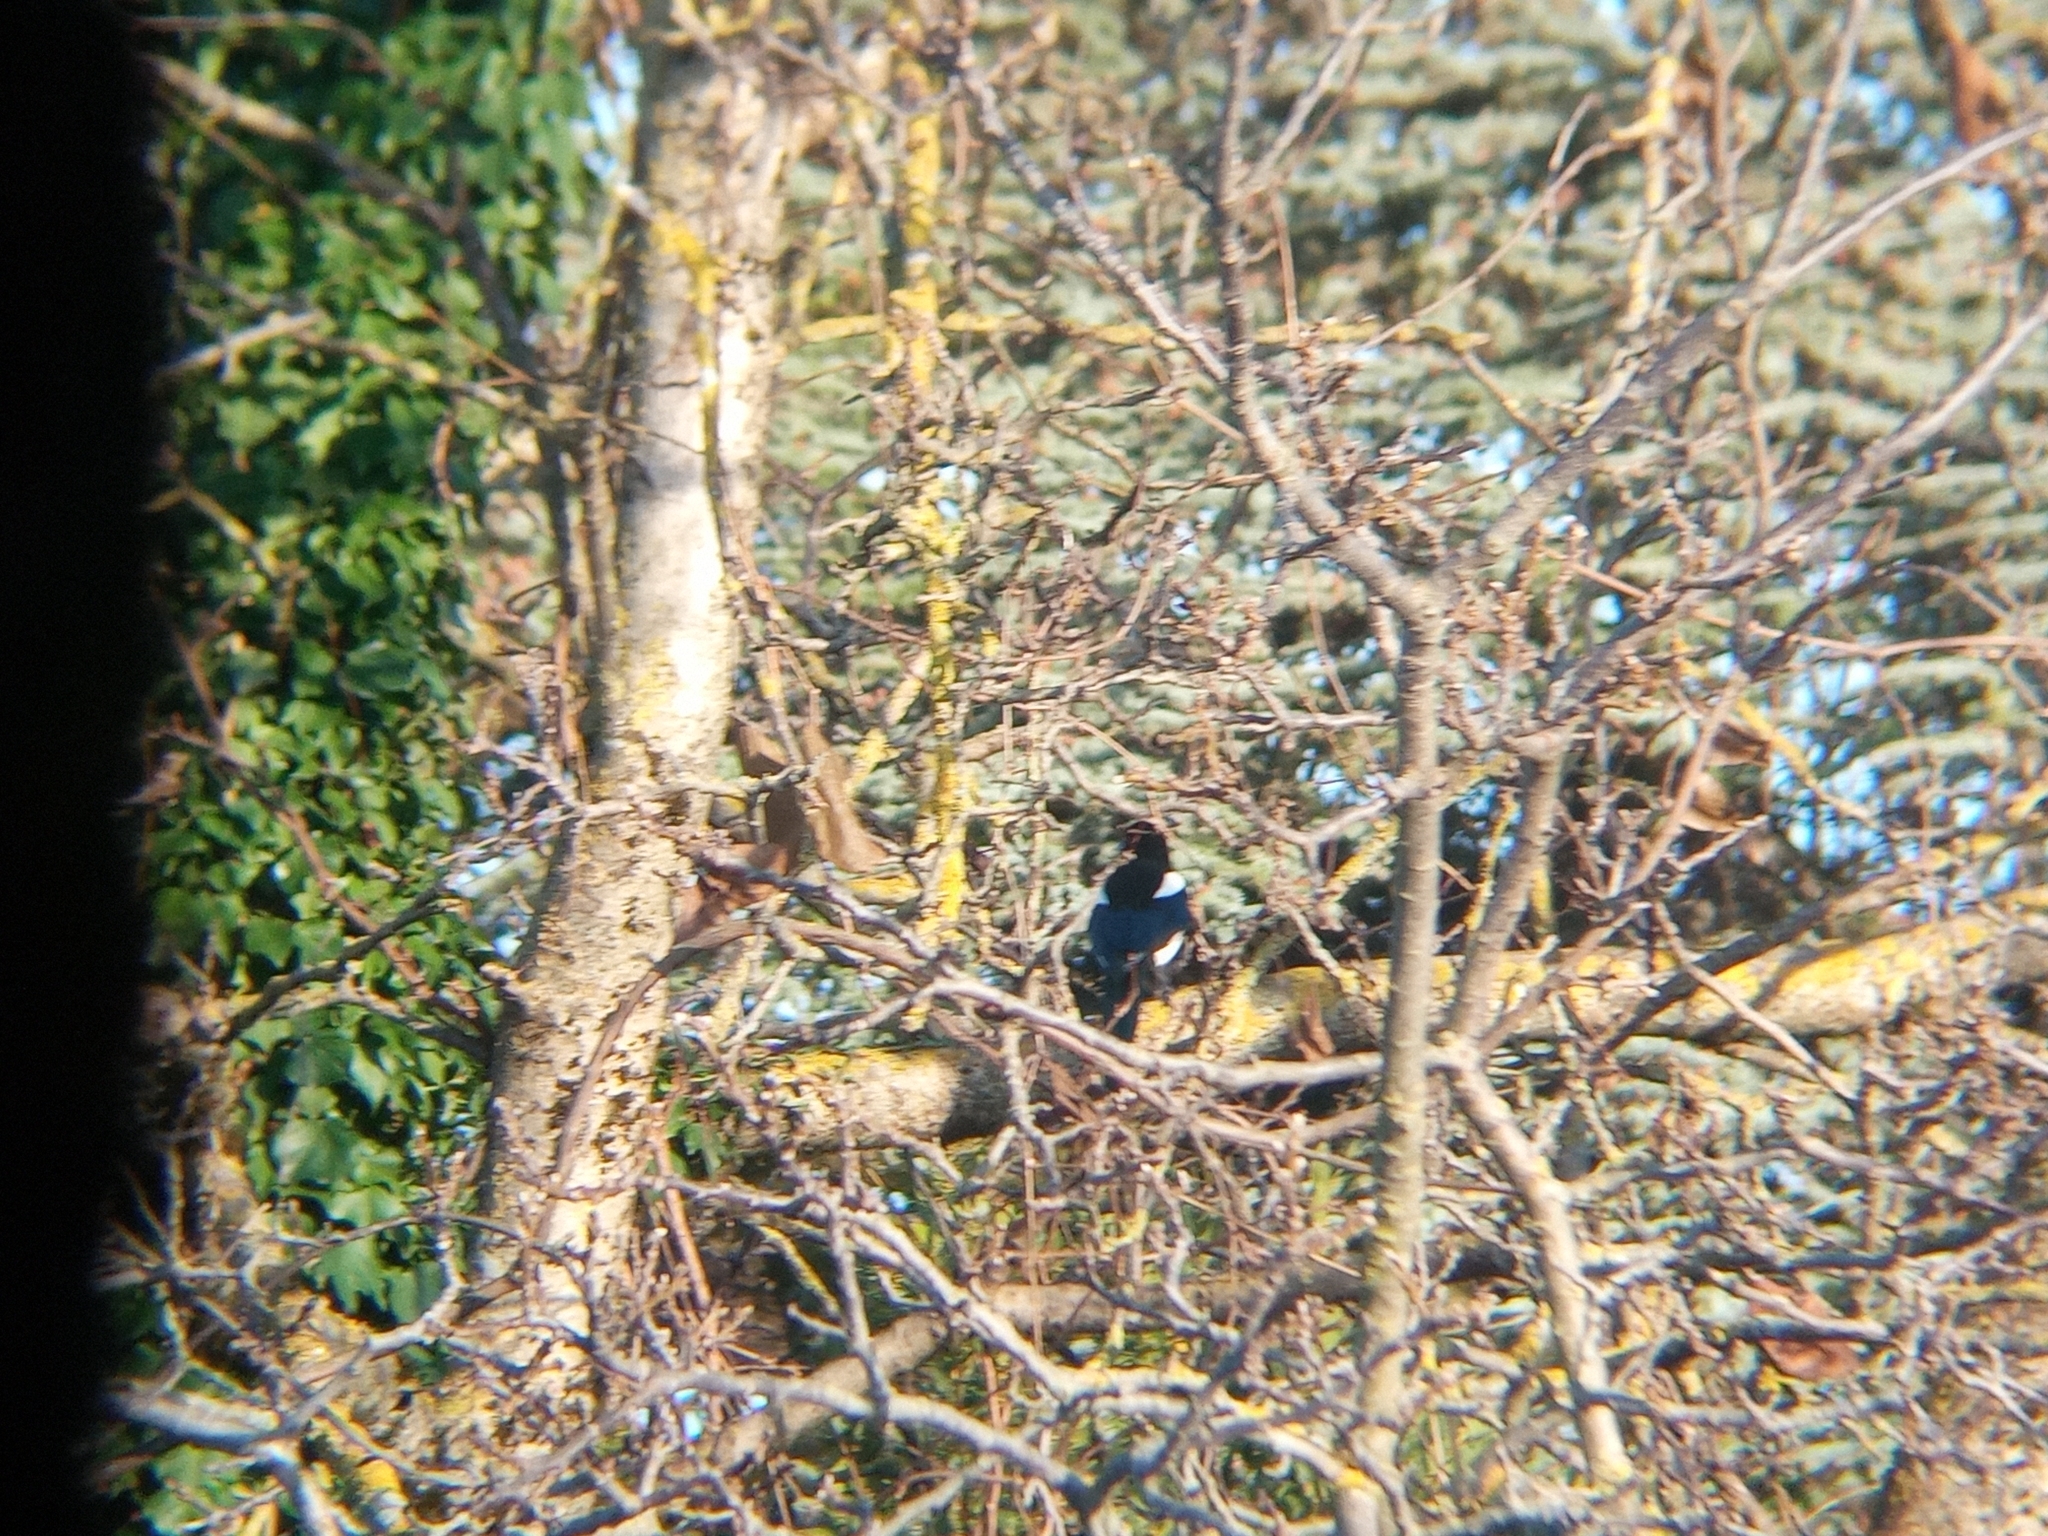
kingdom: Animalia
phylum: Chordata
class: Aves
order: Passeriformes
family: Corvidae
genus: Pica
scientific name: Pica pica
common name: Eurasian magpie
